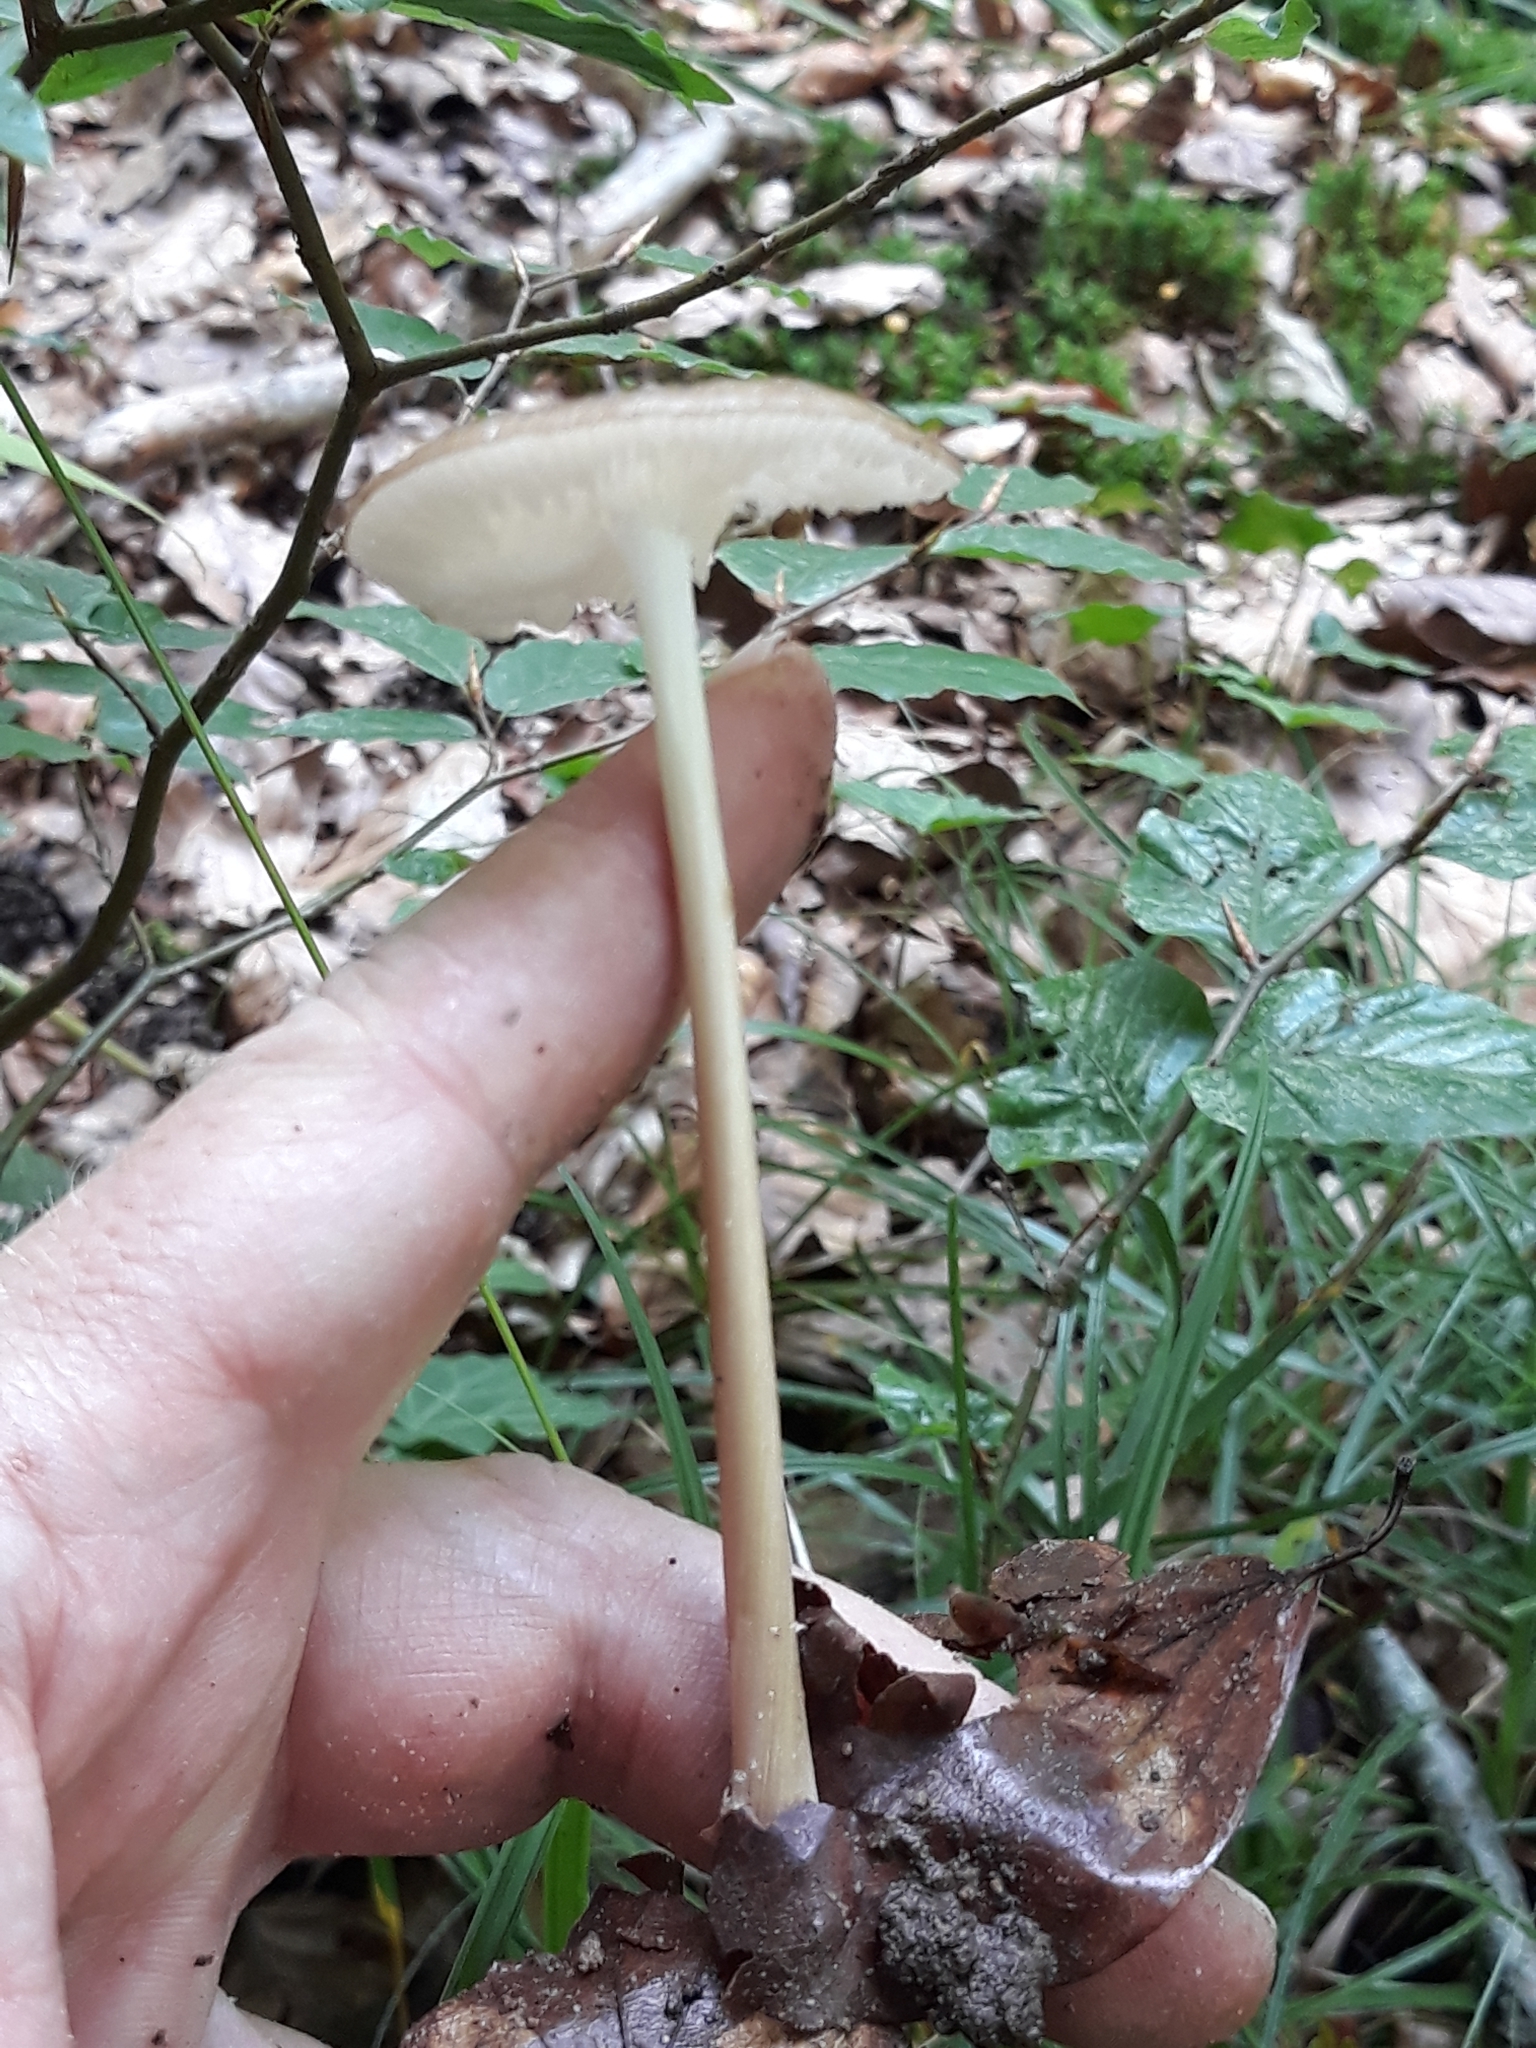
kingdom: Fungi
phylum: Basidiomycota
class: Agaricomycetes
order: Agaricales
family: Physalacriaceae
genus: Hymenopellis
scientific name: Hymenopellis radicata
